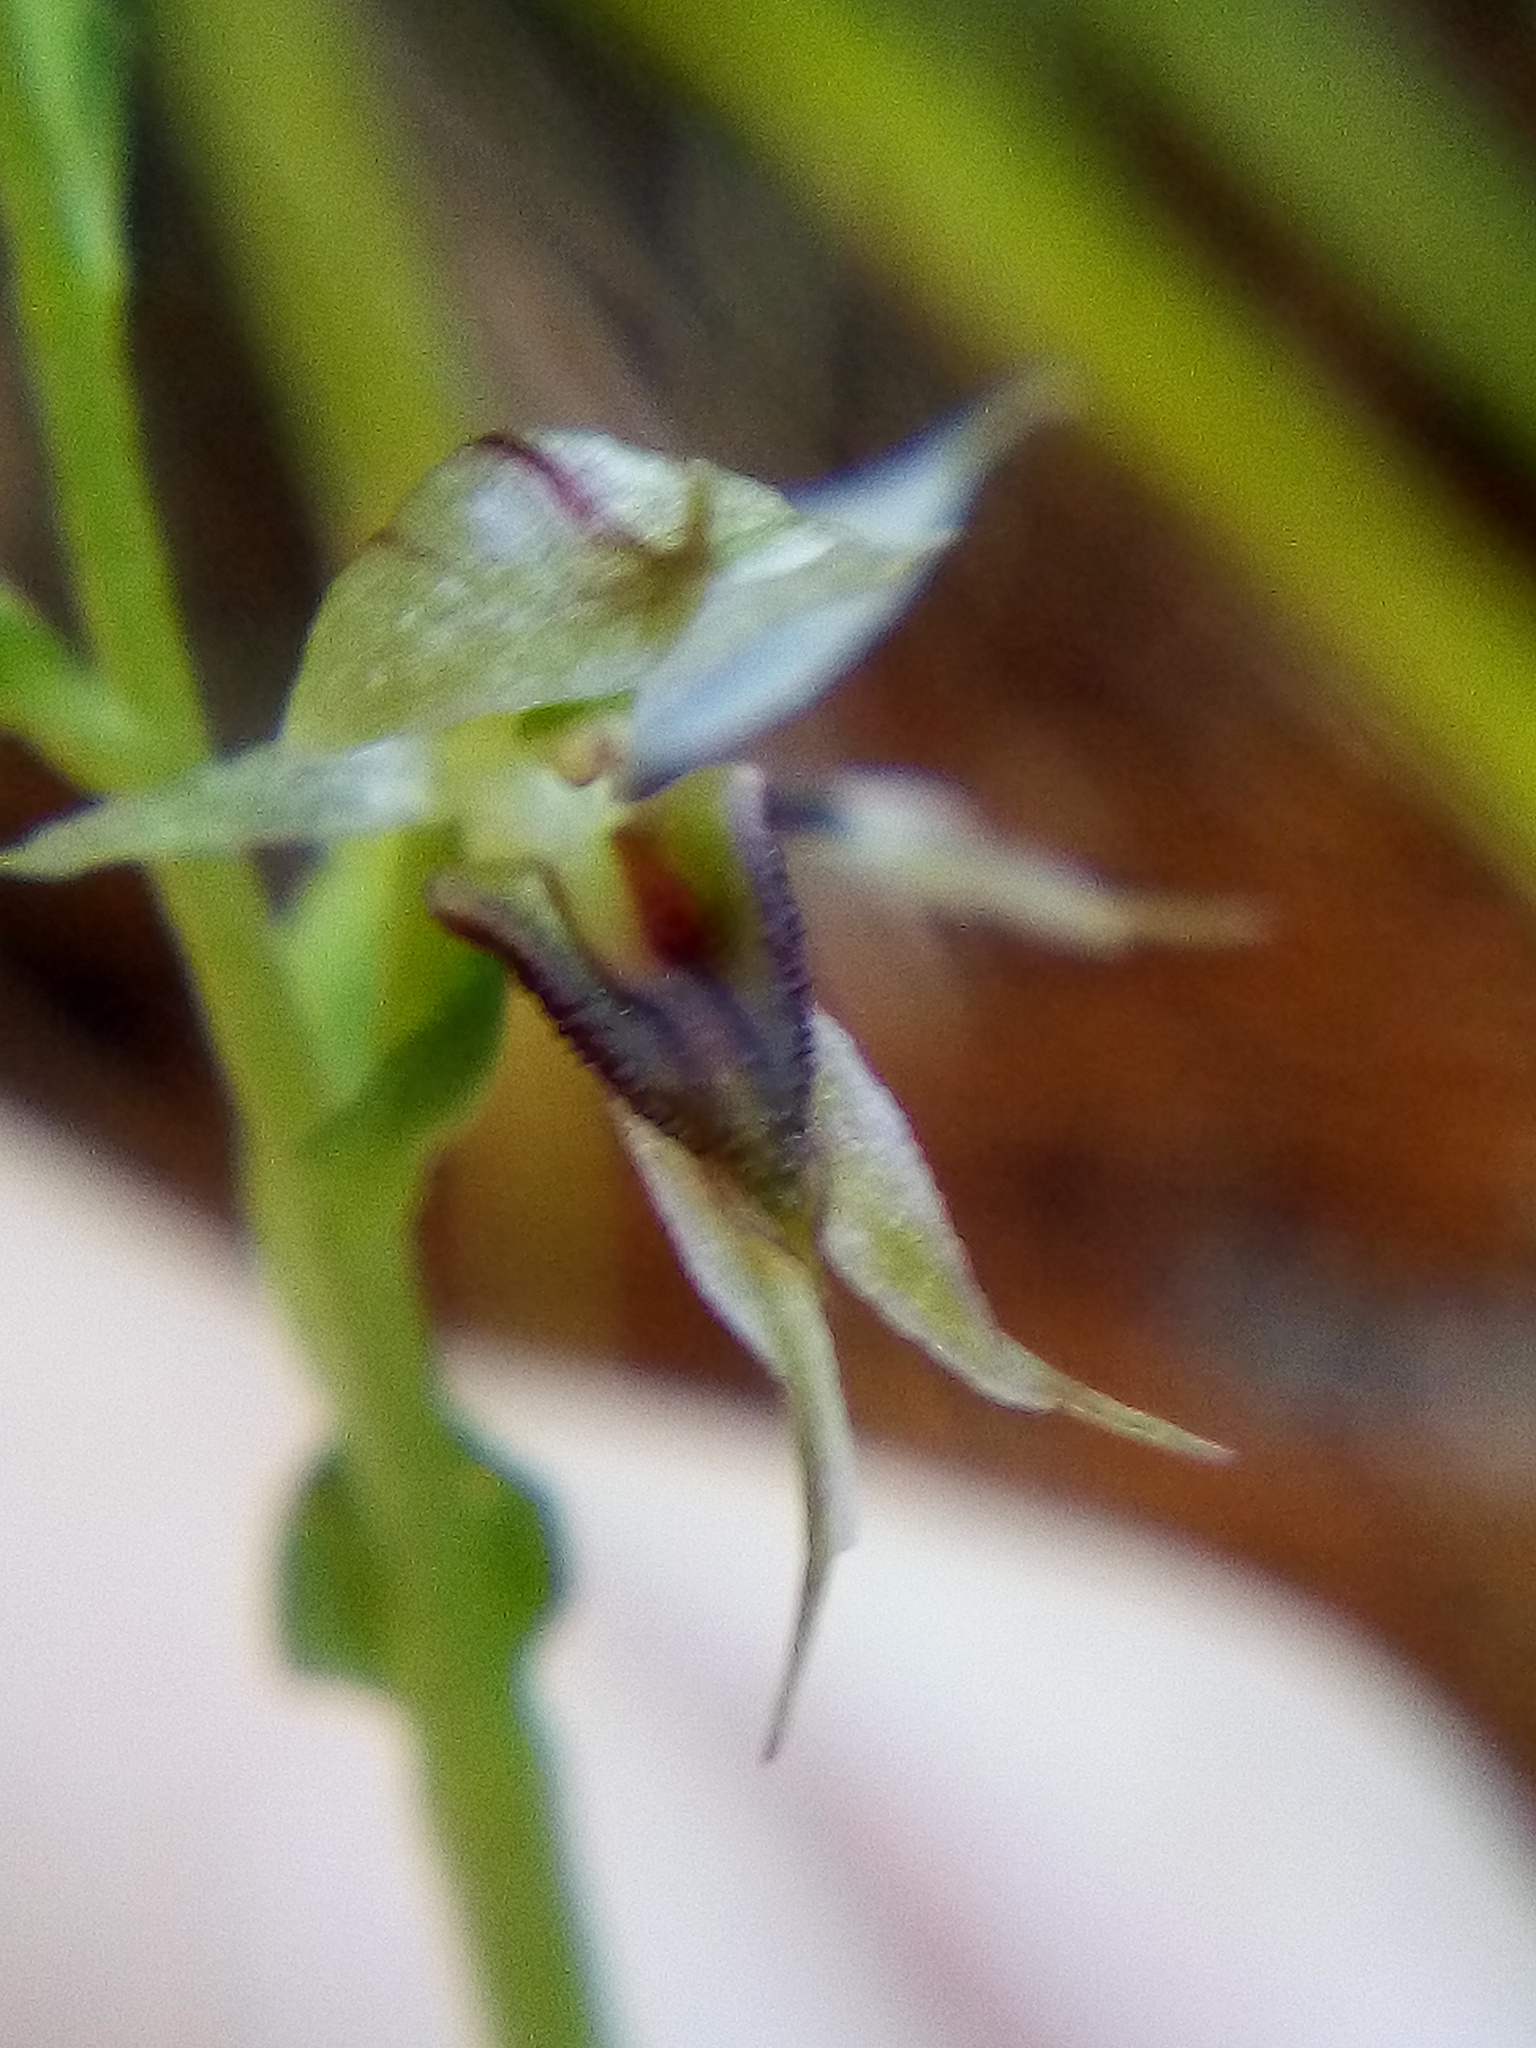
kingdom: Plantae
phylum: Tracheophyta
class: Liliopsida
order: Asparagales
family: Orchidaceae
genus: Acianthus
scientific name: Acianthus sinclairii
